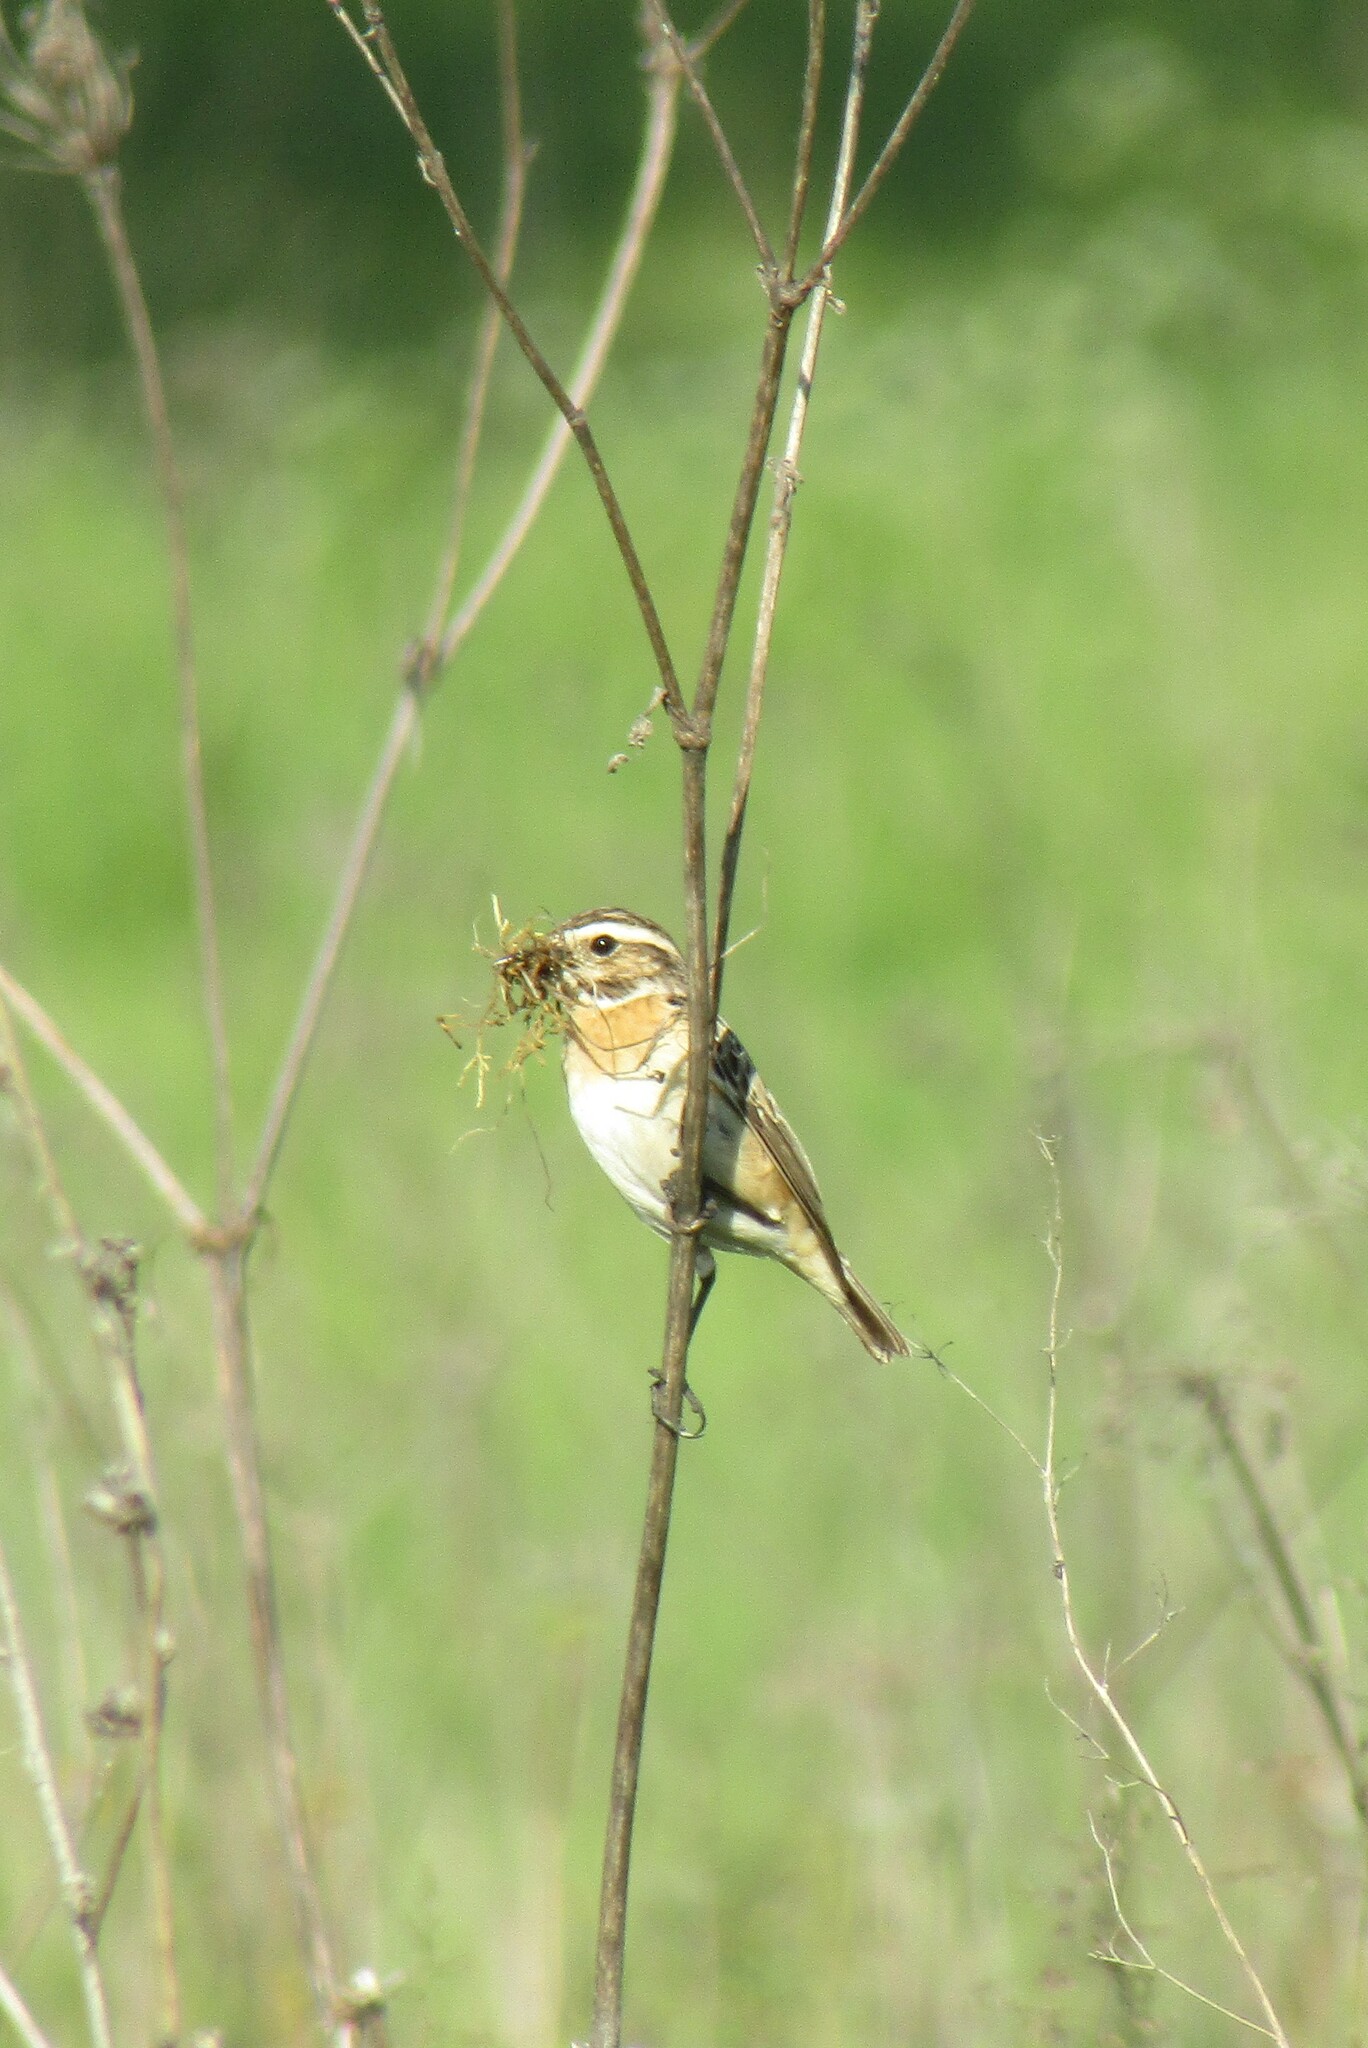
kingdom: Animalia
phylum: Chordata
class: Aves
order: Passeriformes
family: Muscicapidae
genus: Saxicola
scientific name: Saxicola rubetra
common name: Whinchat
